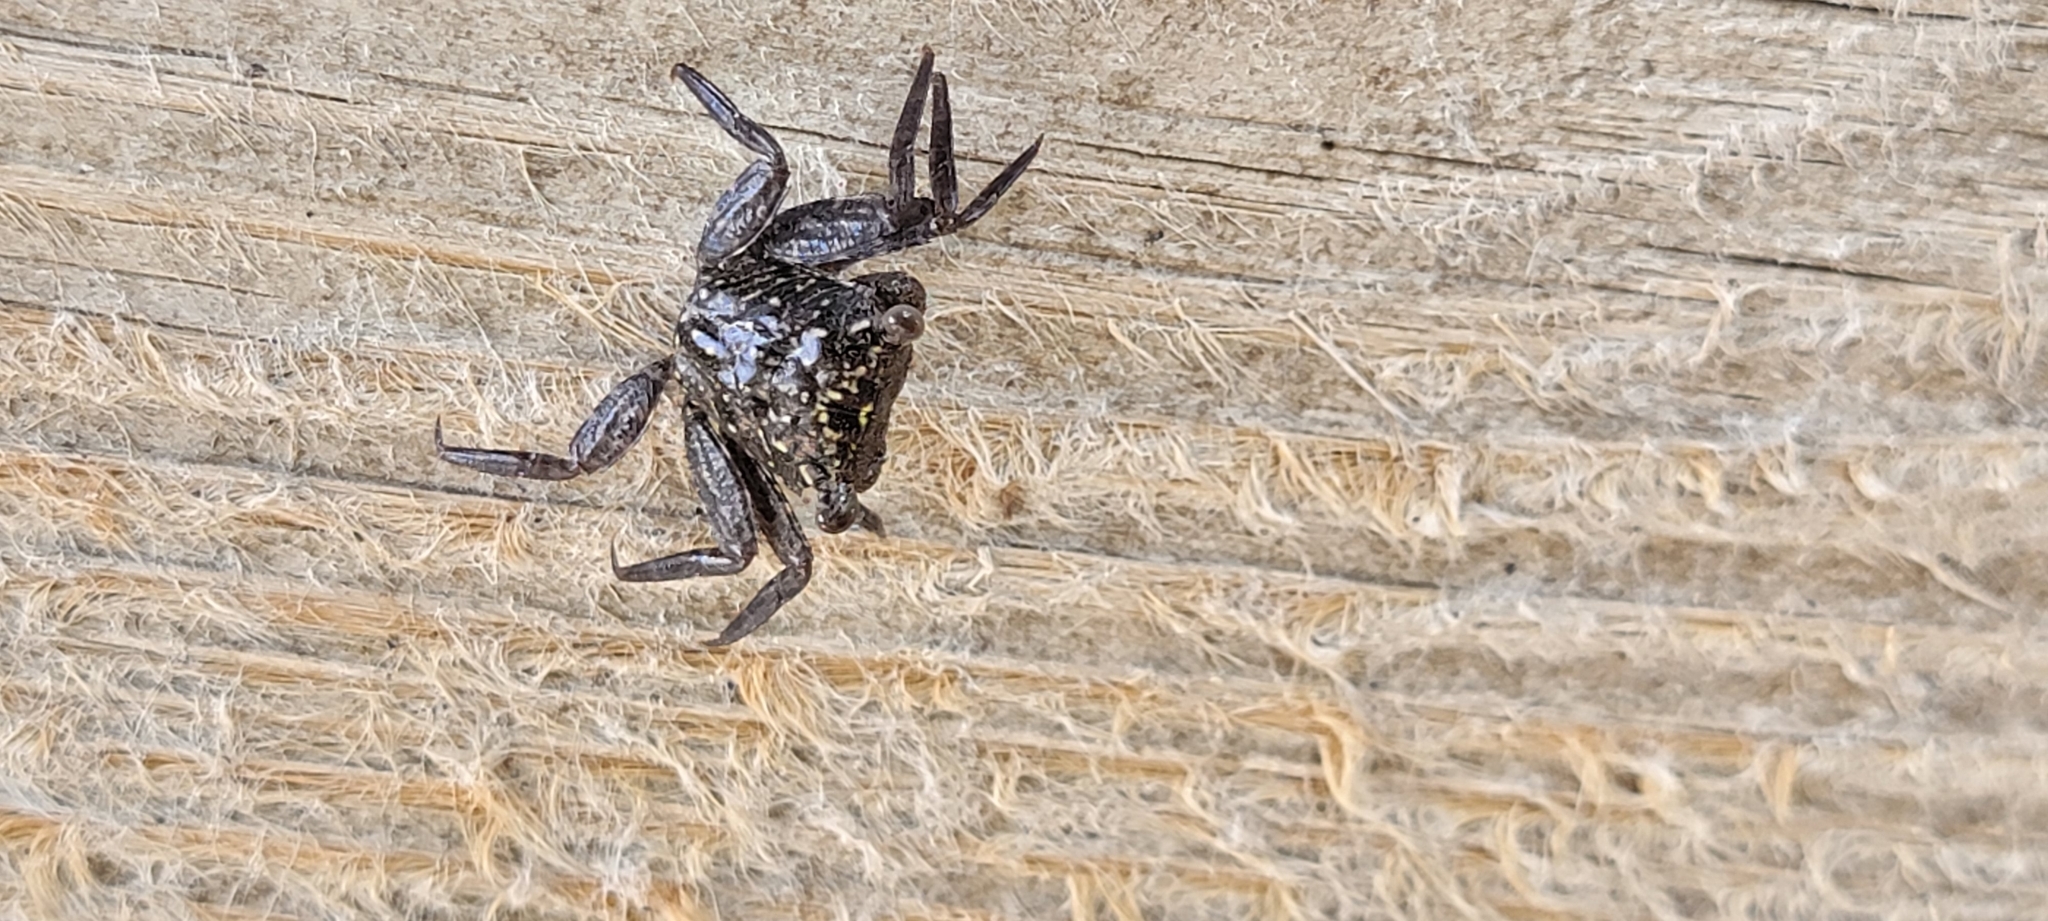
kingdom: Animalia
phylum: Arthropoda
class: Malacostraca
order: Decapoda
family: Sesarmidae
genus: Aratus
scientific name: Aratus pisonii
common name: Mangrove crab
